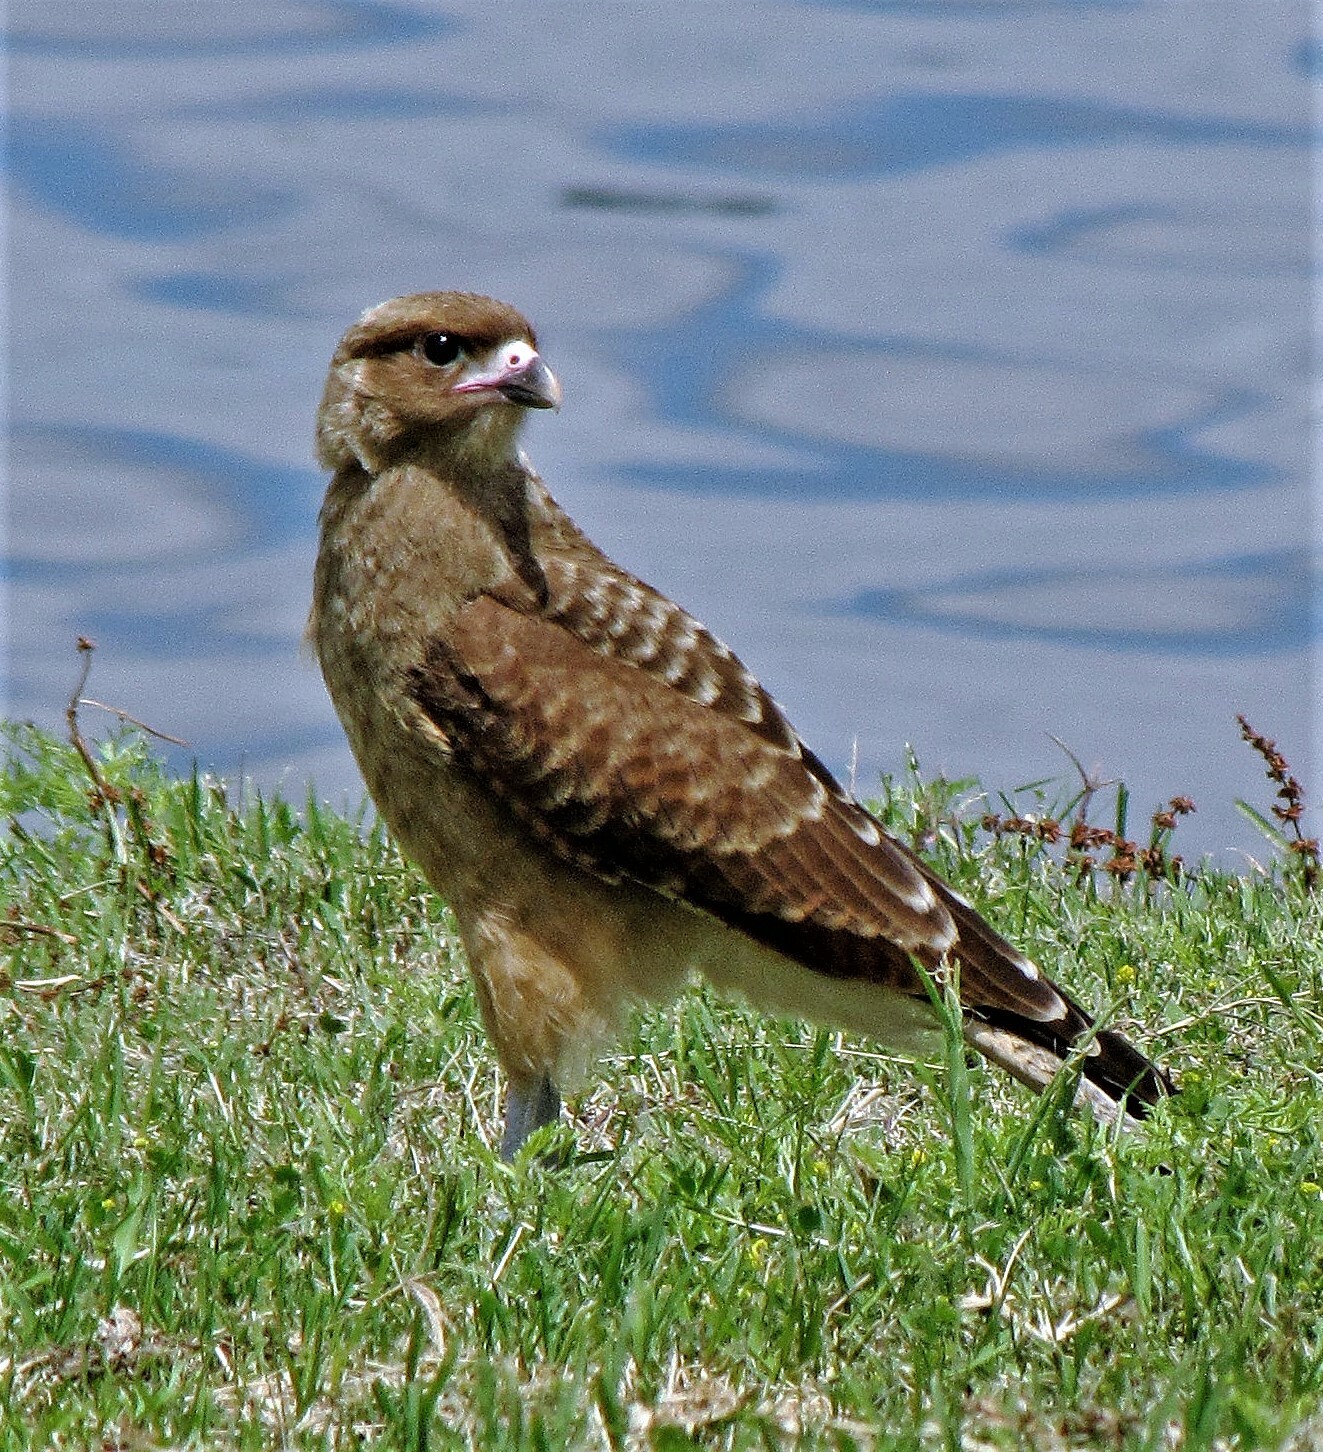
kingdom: Animalia
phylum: Chordata
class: Aves
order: Falconiformes
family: Falconidae
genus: Daptrius
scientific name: Daptrius
